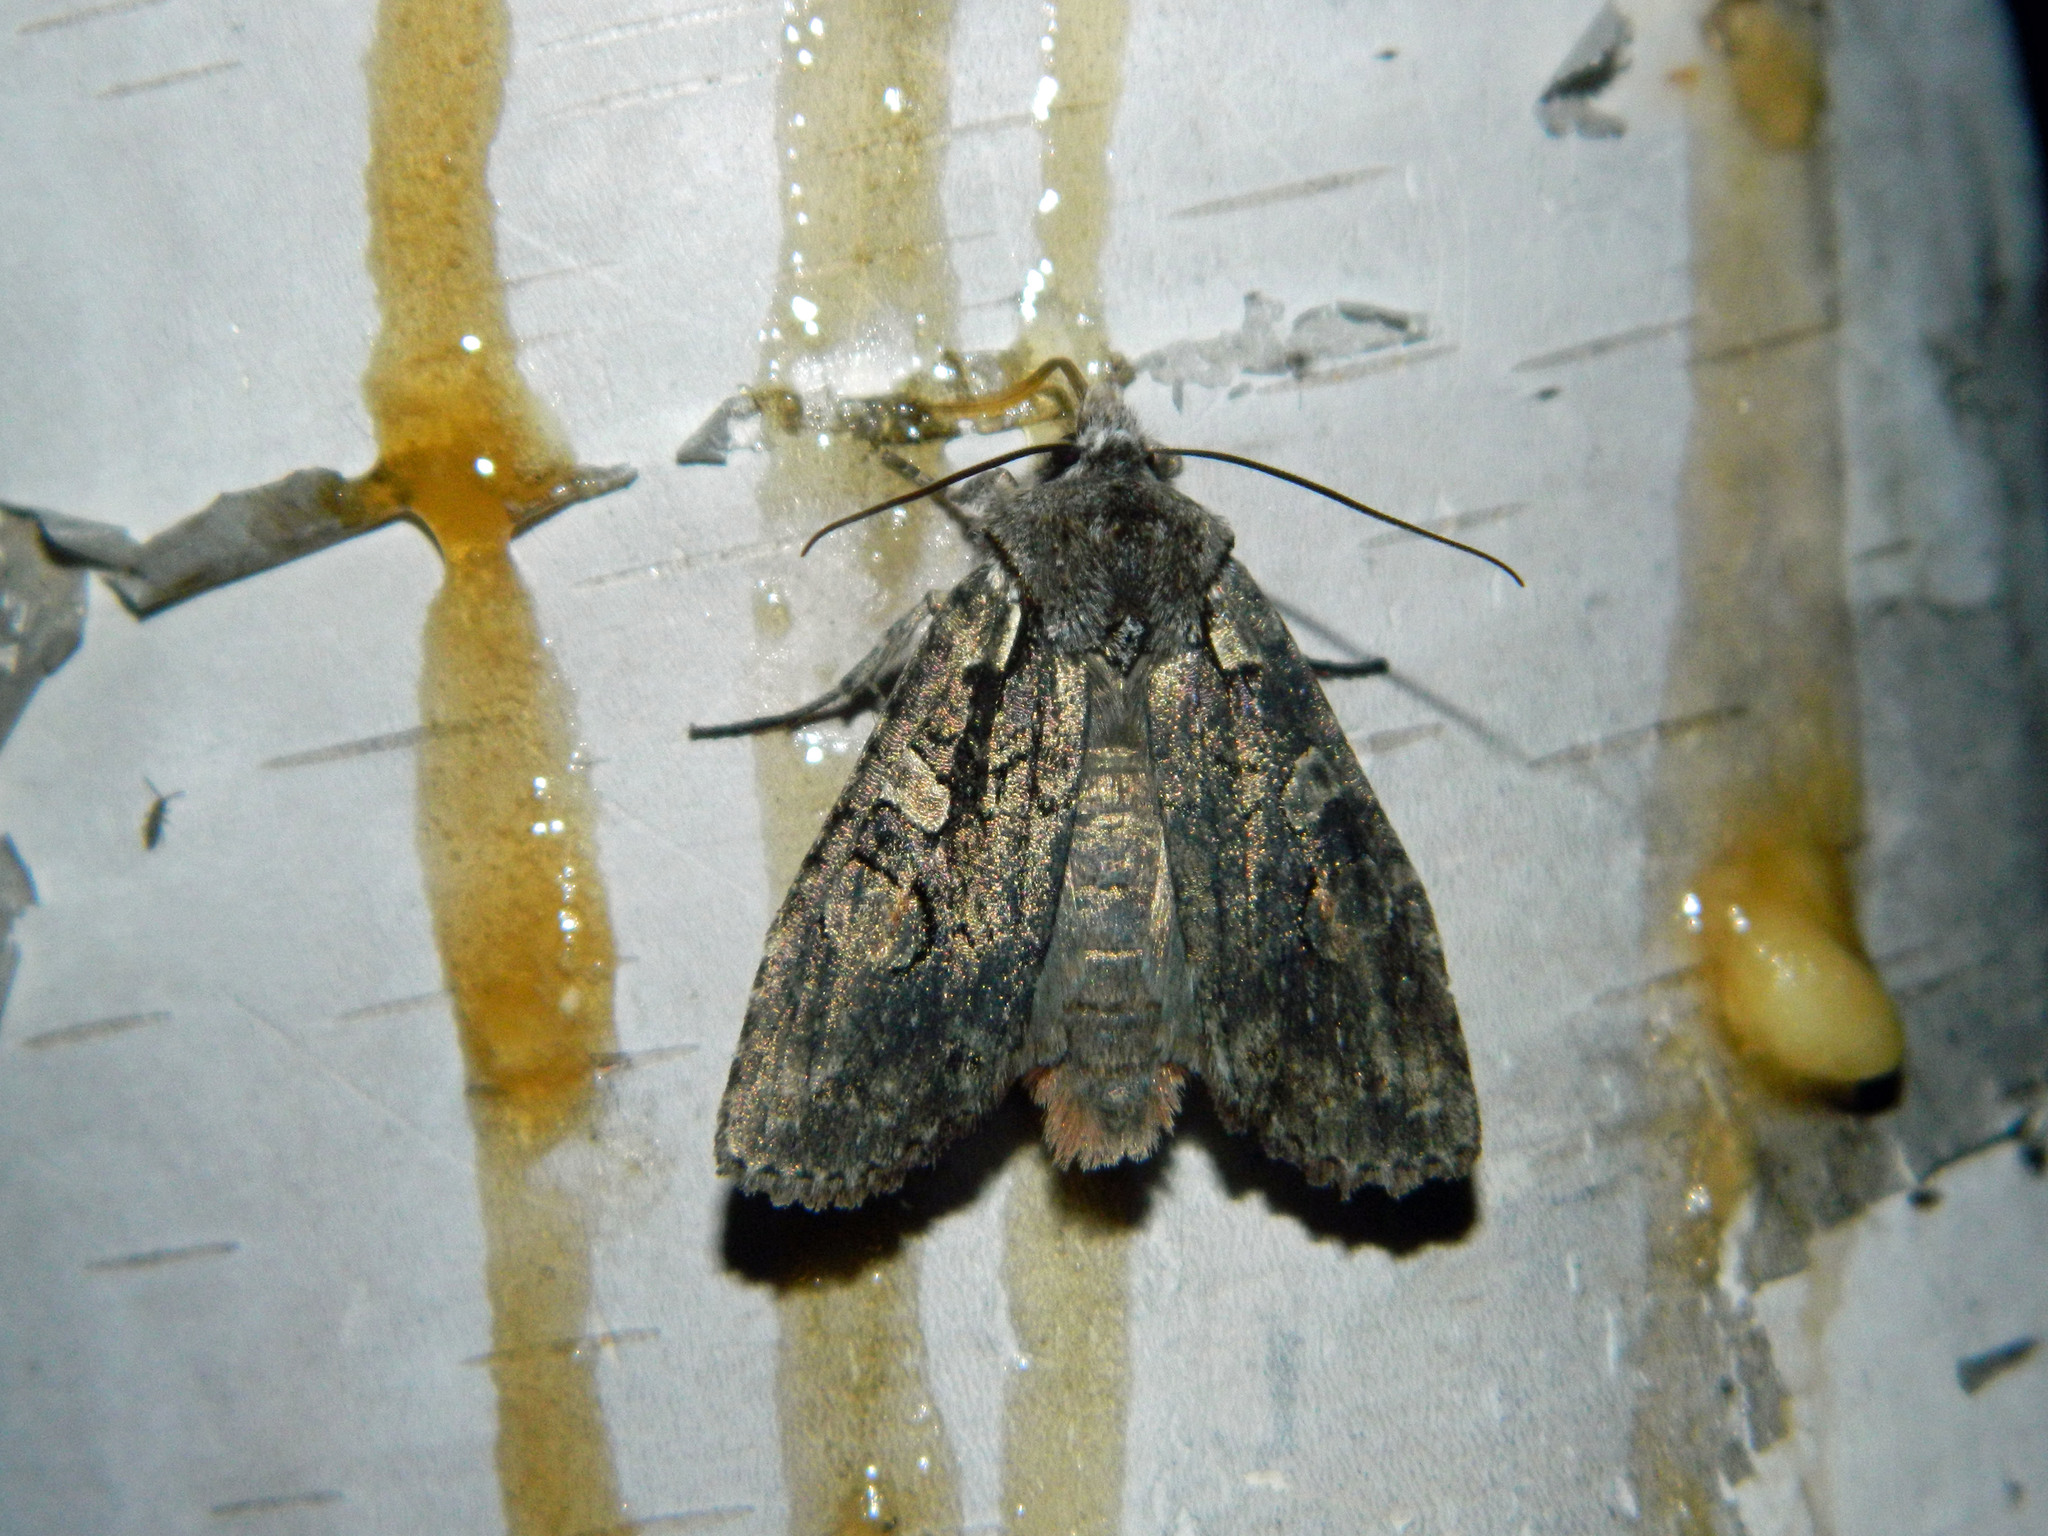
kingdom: Animalia
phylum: Arthropoda
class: Insecta
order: Lepidoptera
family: Noctuidae
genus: Lithophane
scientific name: Lithophane baileyi
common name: Bailey's pinion moth
